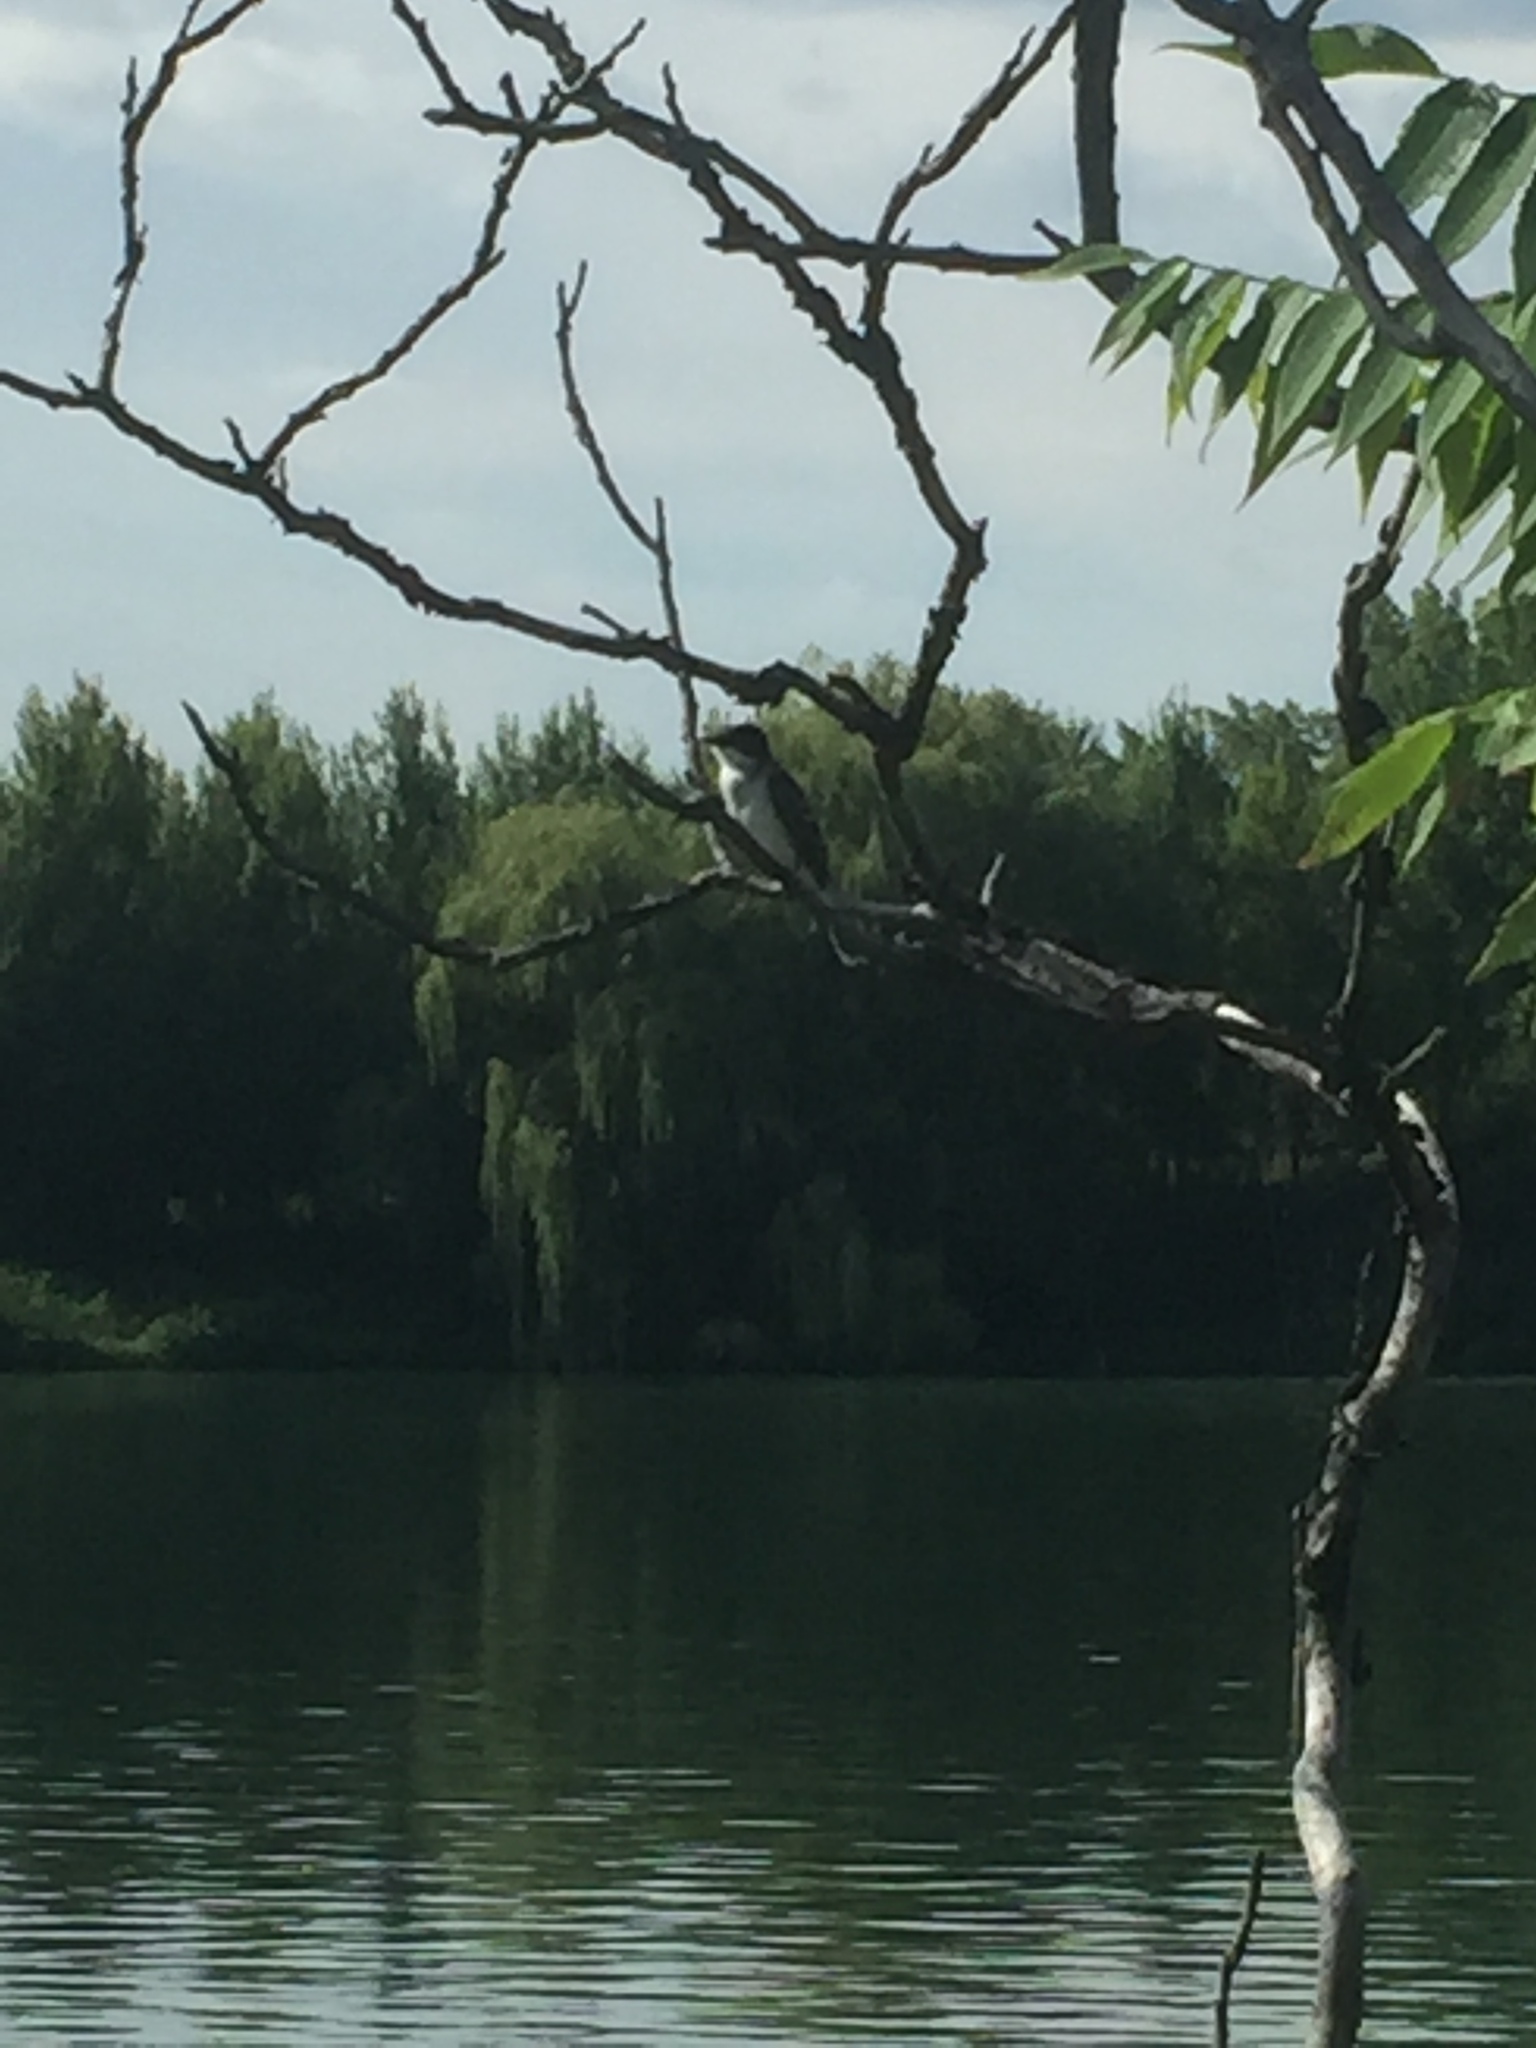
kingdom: Animalia
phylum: Chordata
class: Aves
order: Passeriformes
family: Tyrannidae
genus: Tyrannus
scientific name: Tyrannus tyrannus
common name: Eastern kingbird
